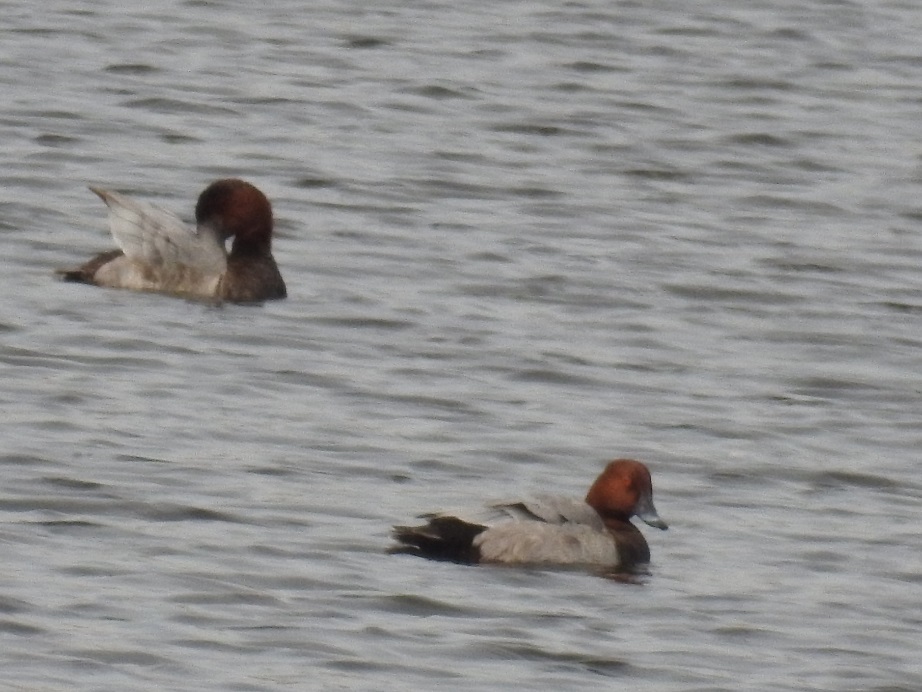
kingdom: Animalia
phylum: Chordata
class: Aves
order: Anseriformes
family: Anatidae
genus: Aythya
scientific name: Aythya ferina
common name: Common pochard
